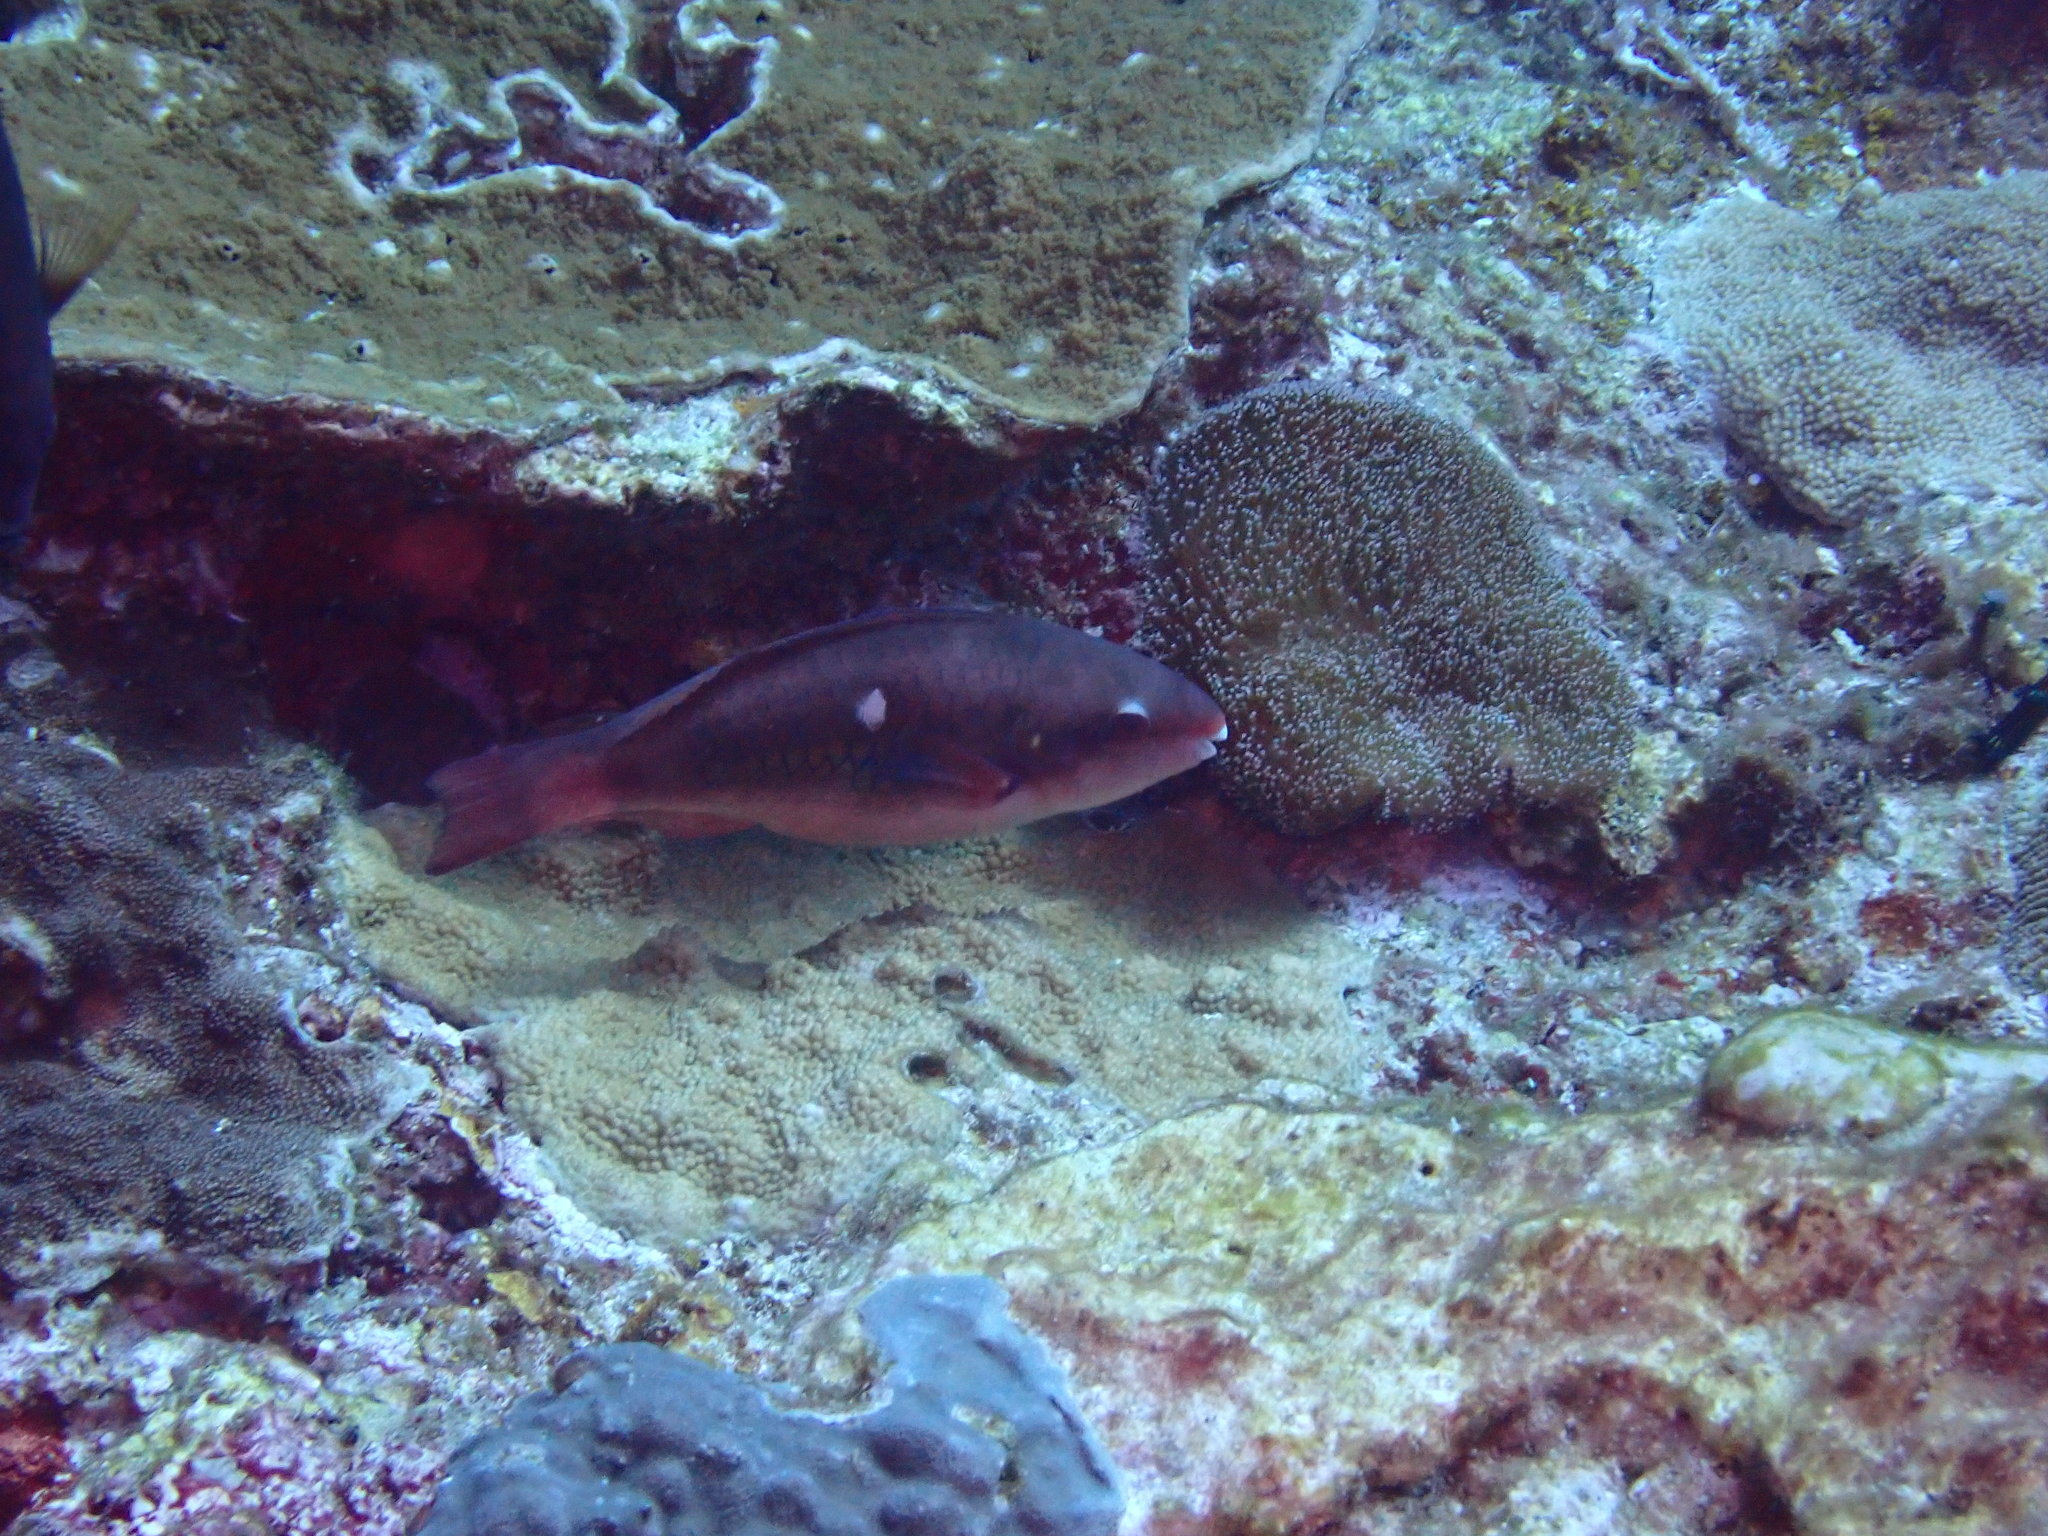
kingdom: Animalia
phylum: Chordata
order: Perciformes
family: Scaridae
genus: Scarus
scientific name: Scarus forsteni
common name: Forsten's parrotfish
